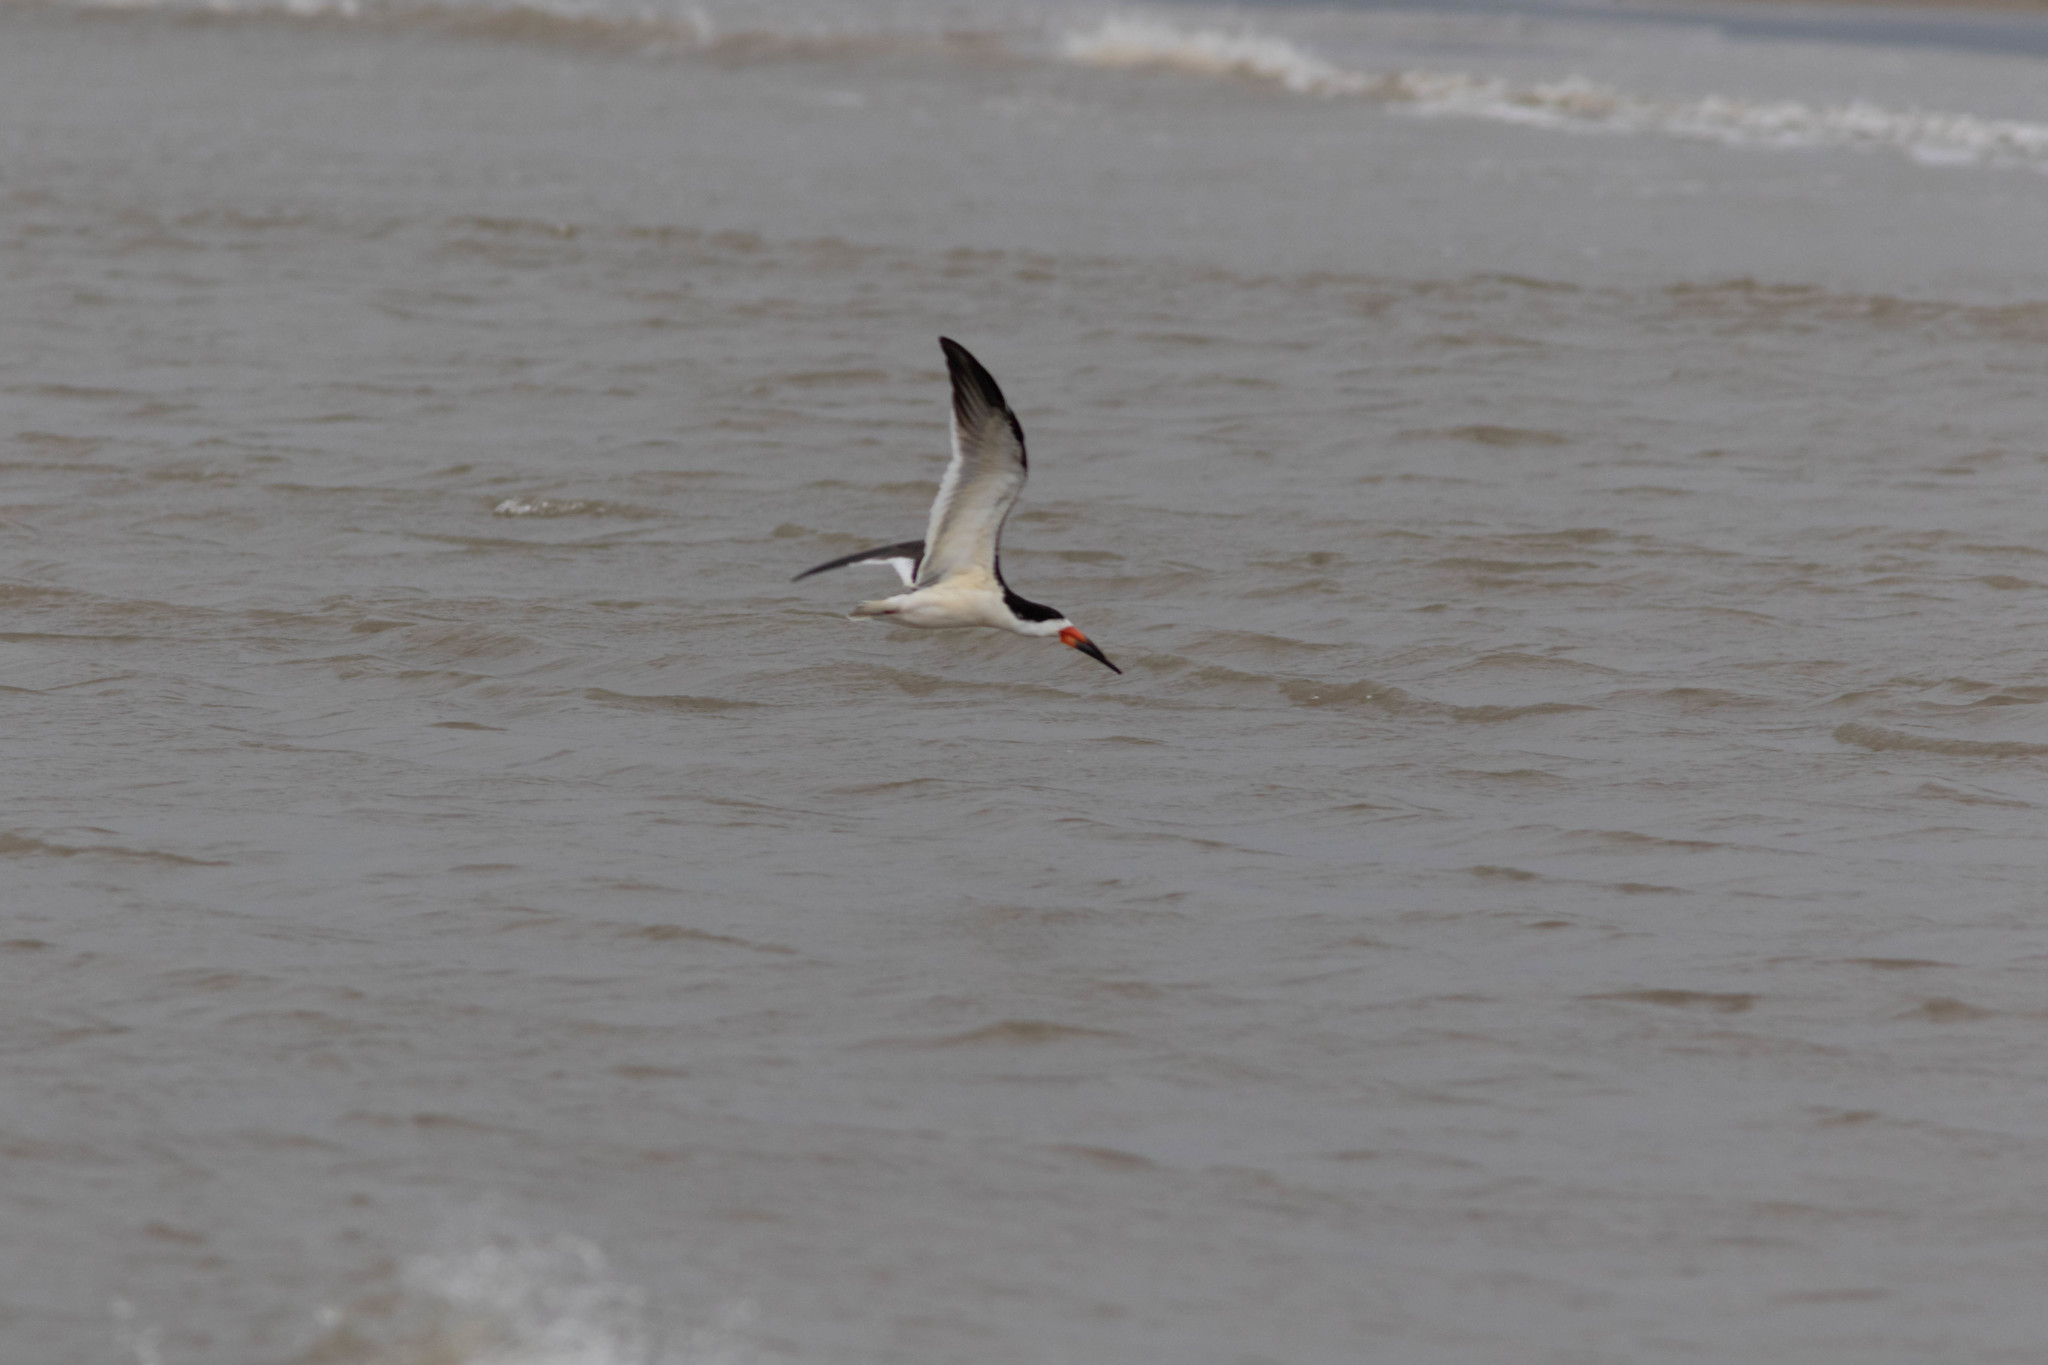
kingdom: Animalia
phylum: Chordata
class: Aves
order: Charadriiformes
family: Laridae
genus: Rynchops
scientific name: Rynchops niger
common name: Black skimmer
